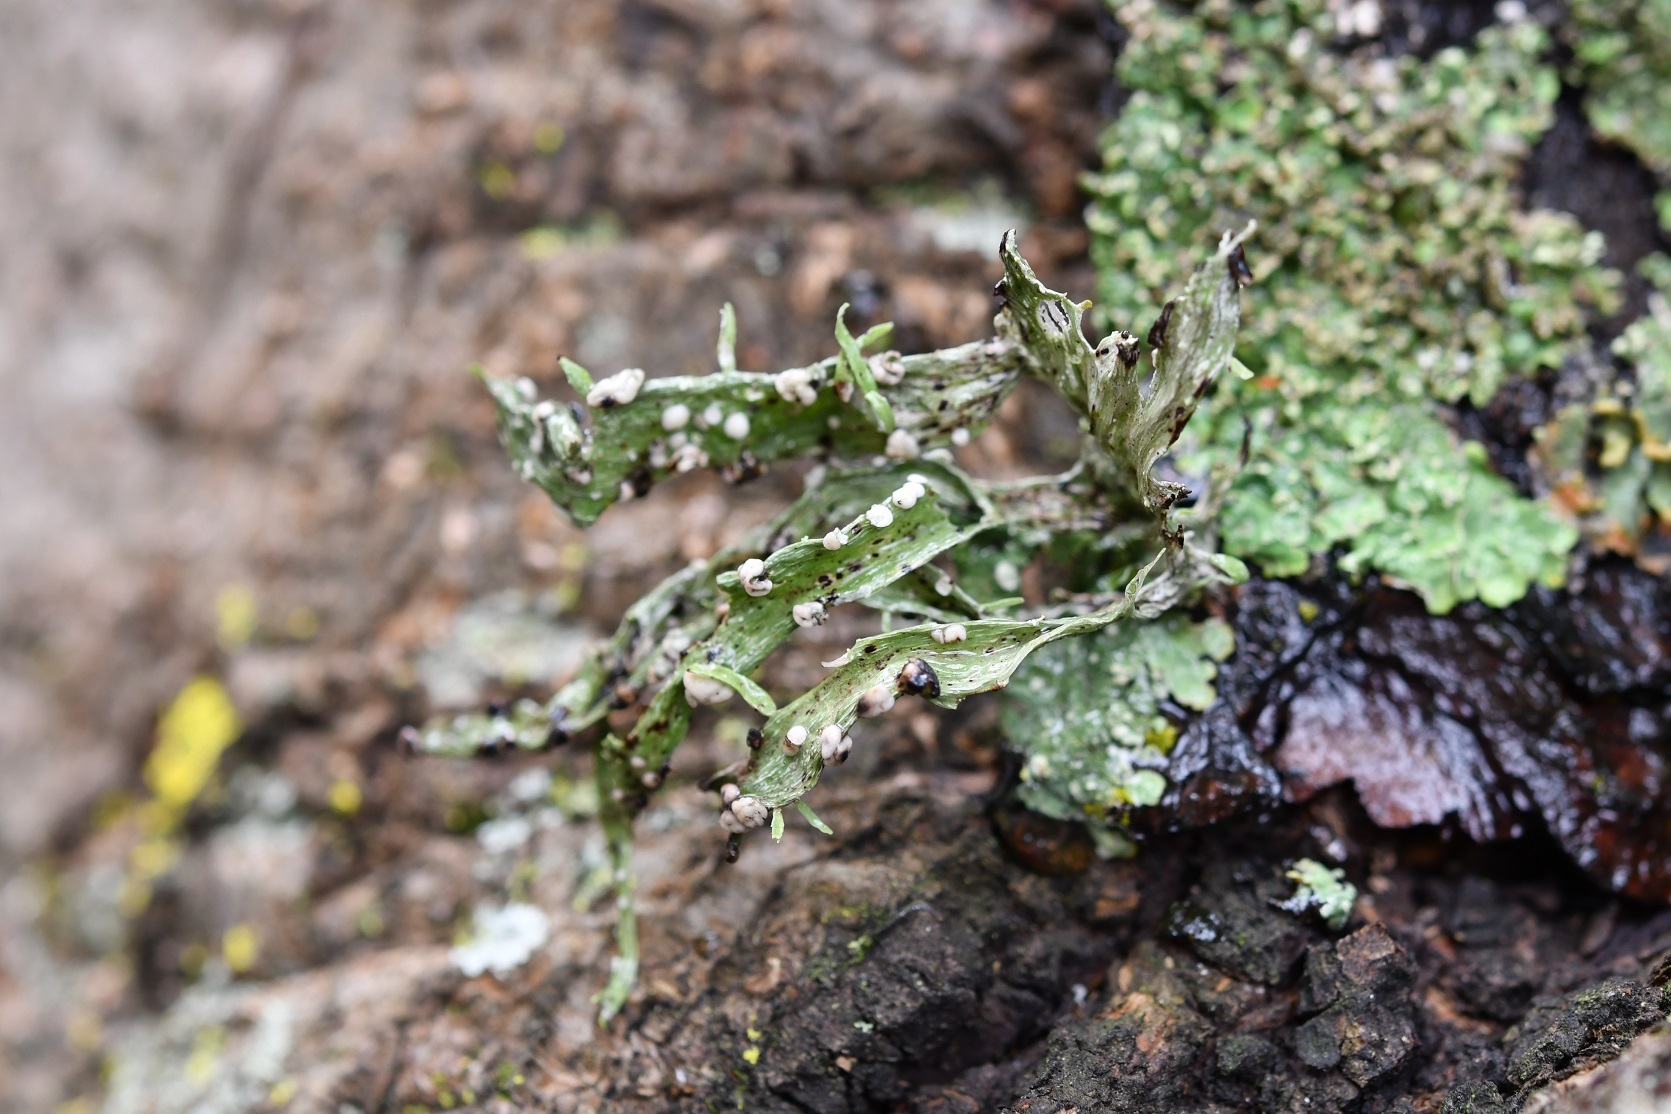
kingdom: Fungi
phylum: Ascomycota
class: Lecanoromycetes
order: Lecanorales
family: Ramalinaceae
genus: Ramalina
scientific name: Ramalina celastri
